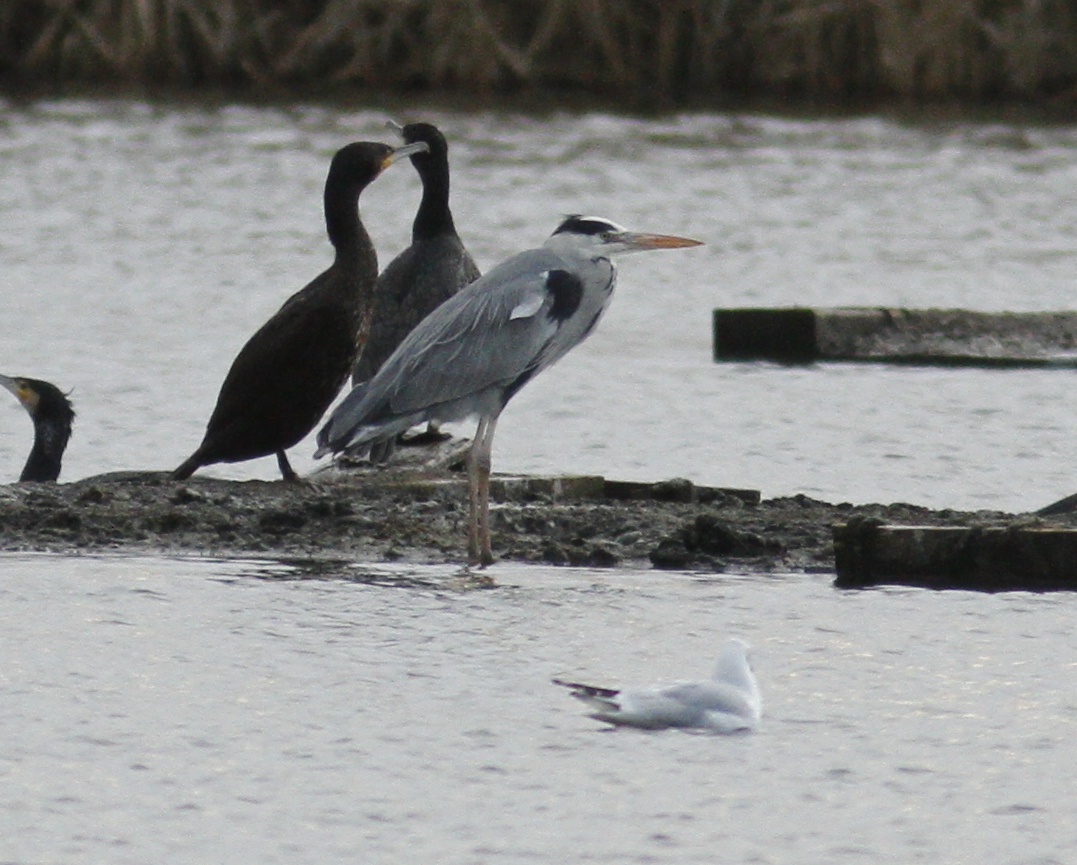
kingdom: Animalia
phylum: Chordata
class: Aves
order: Pelecaniformes
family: Ardeidae
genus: Ardea
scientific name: Ardea cinerea
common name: Grey heron
